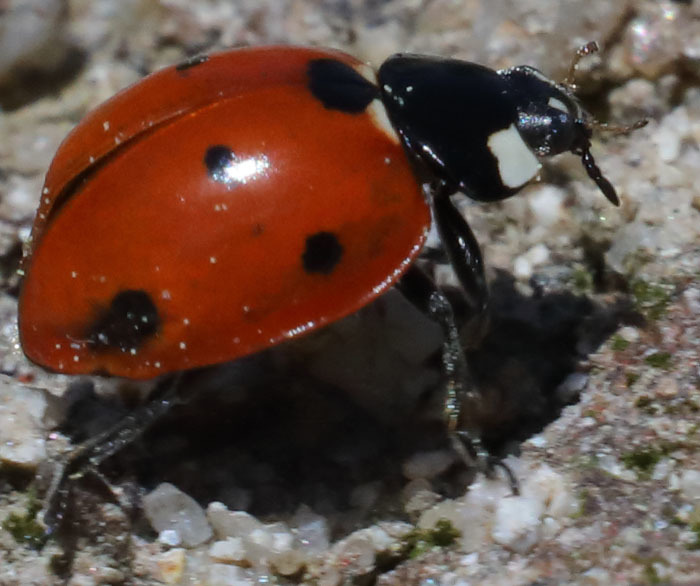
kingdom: Animalia
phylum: Arthropoda
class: Insecta
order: Coleoptera
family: Coccinellidae
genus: Coccinella
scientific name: Coccinella septempunctata
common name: Sevenspotted lady beetle
